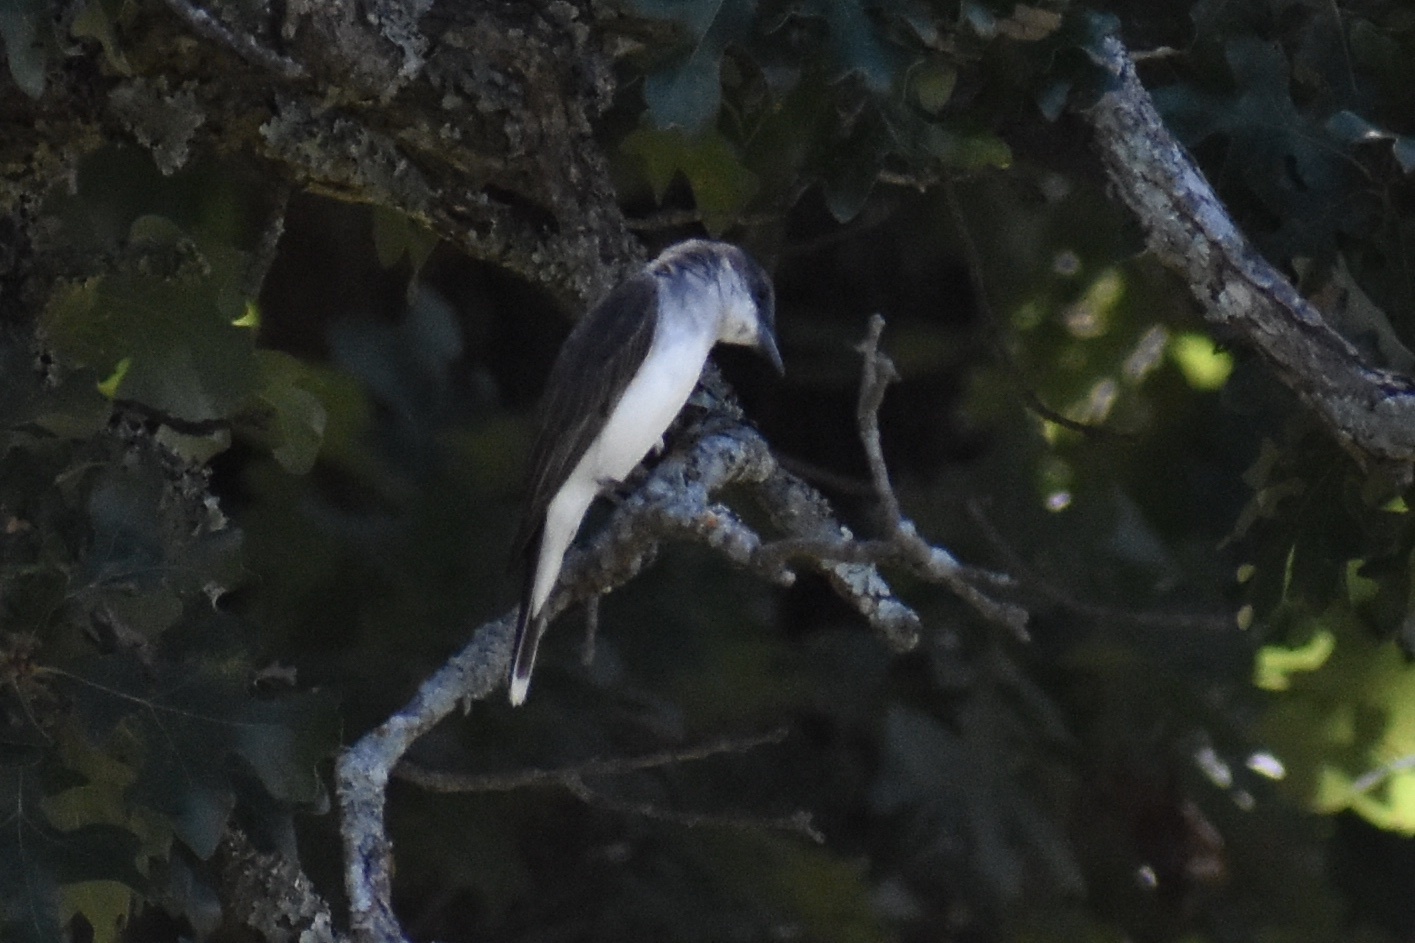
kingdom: Animalia
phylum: Chordata
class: Aves
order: Passeriformes
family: Tyrannidae
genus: Tyrannus
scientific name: Tyrannus tyrannus
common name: Eastern kingbird
